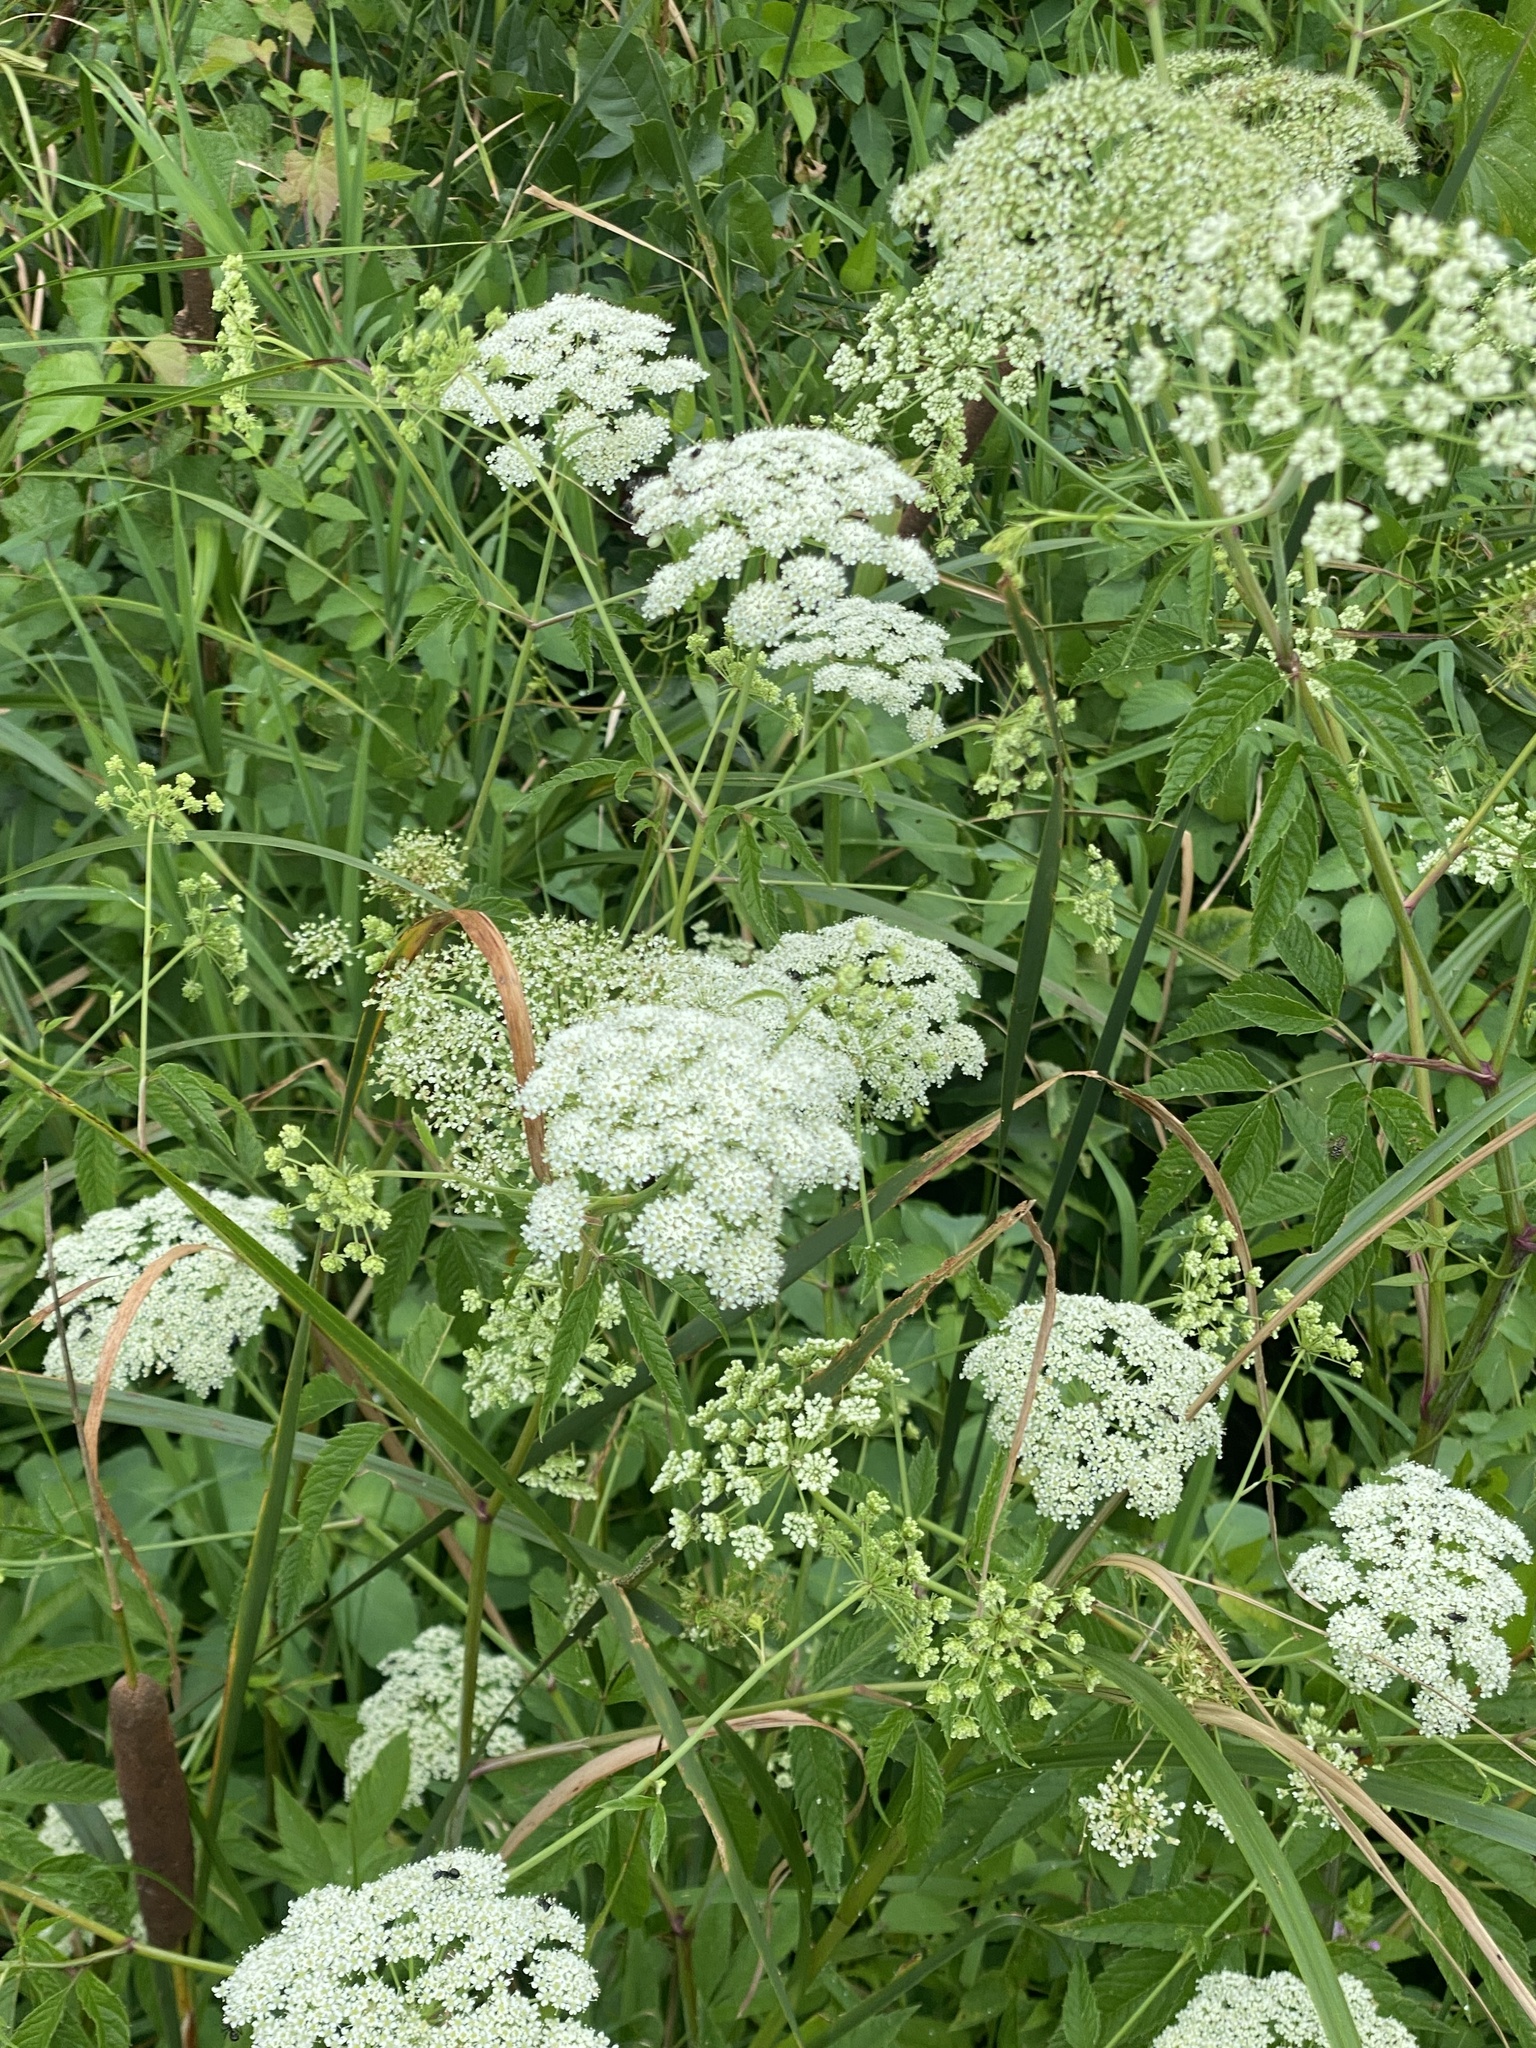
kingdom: Plantae
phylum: Tracheophyta
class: Magnoliopsida
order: Apiales
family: Apiaceae
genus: Cicuta
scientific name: Cicuta maculata
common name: Spotted cowbane
